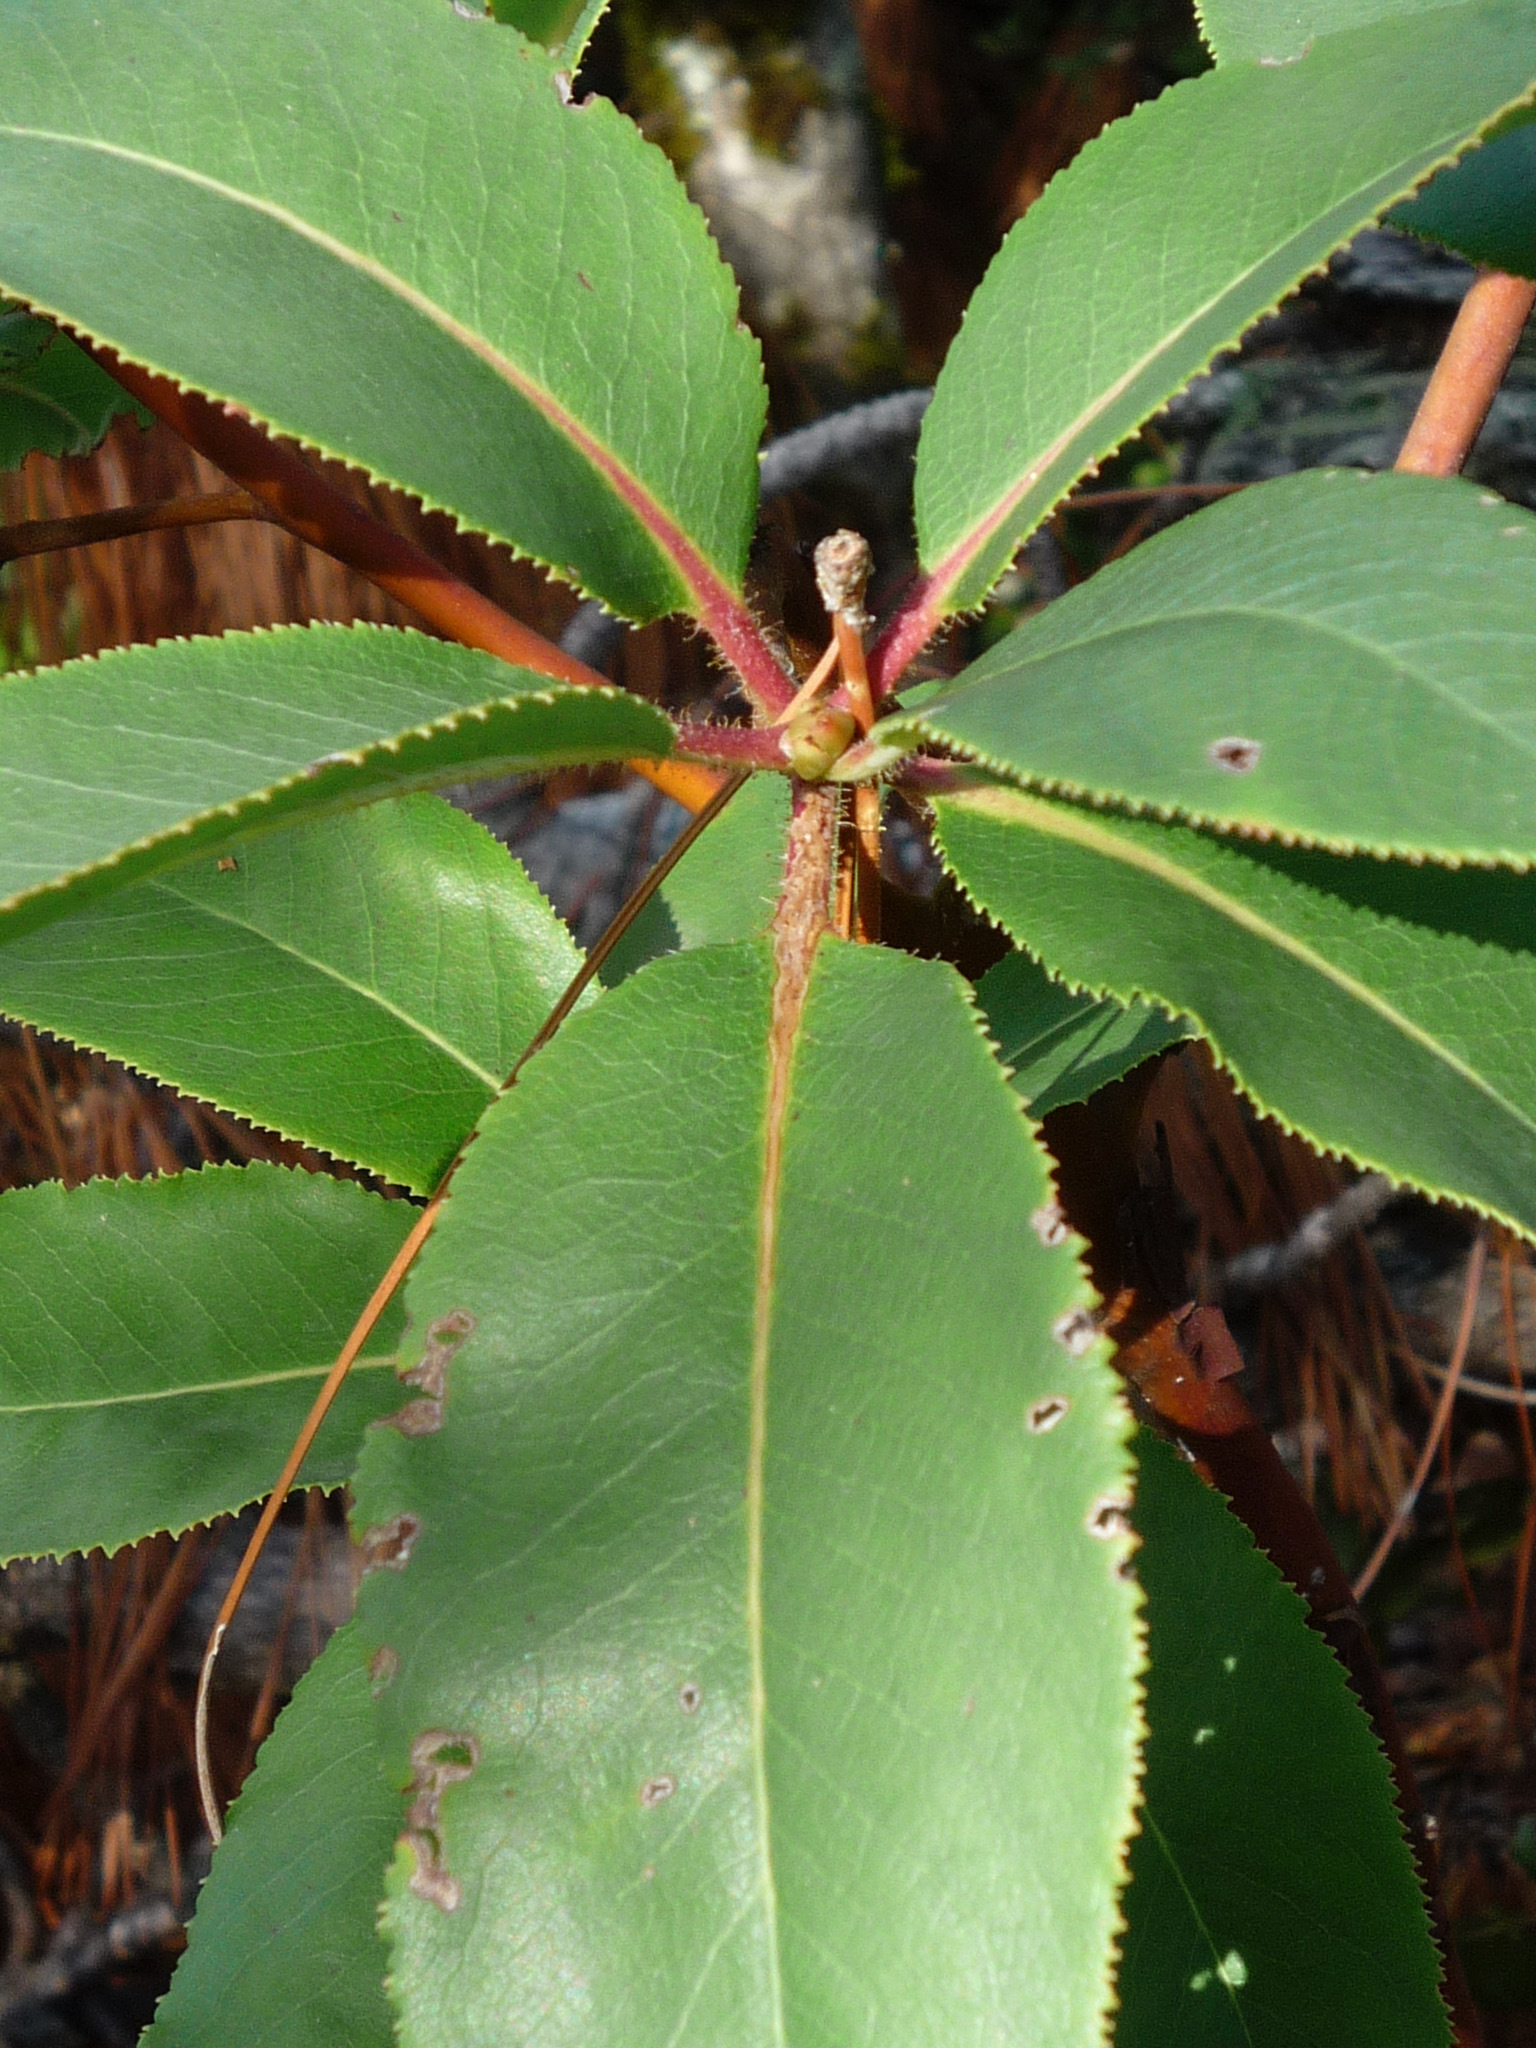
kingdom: Plantae
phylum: Tracheophyta
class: Magnoliopsida
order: Ericales
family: Ericaceae
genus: Arbutus
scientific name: Arbutus menziesii
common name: Pacific madrone
